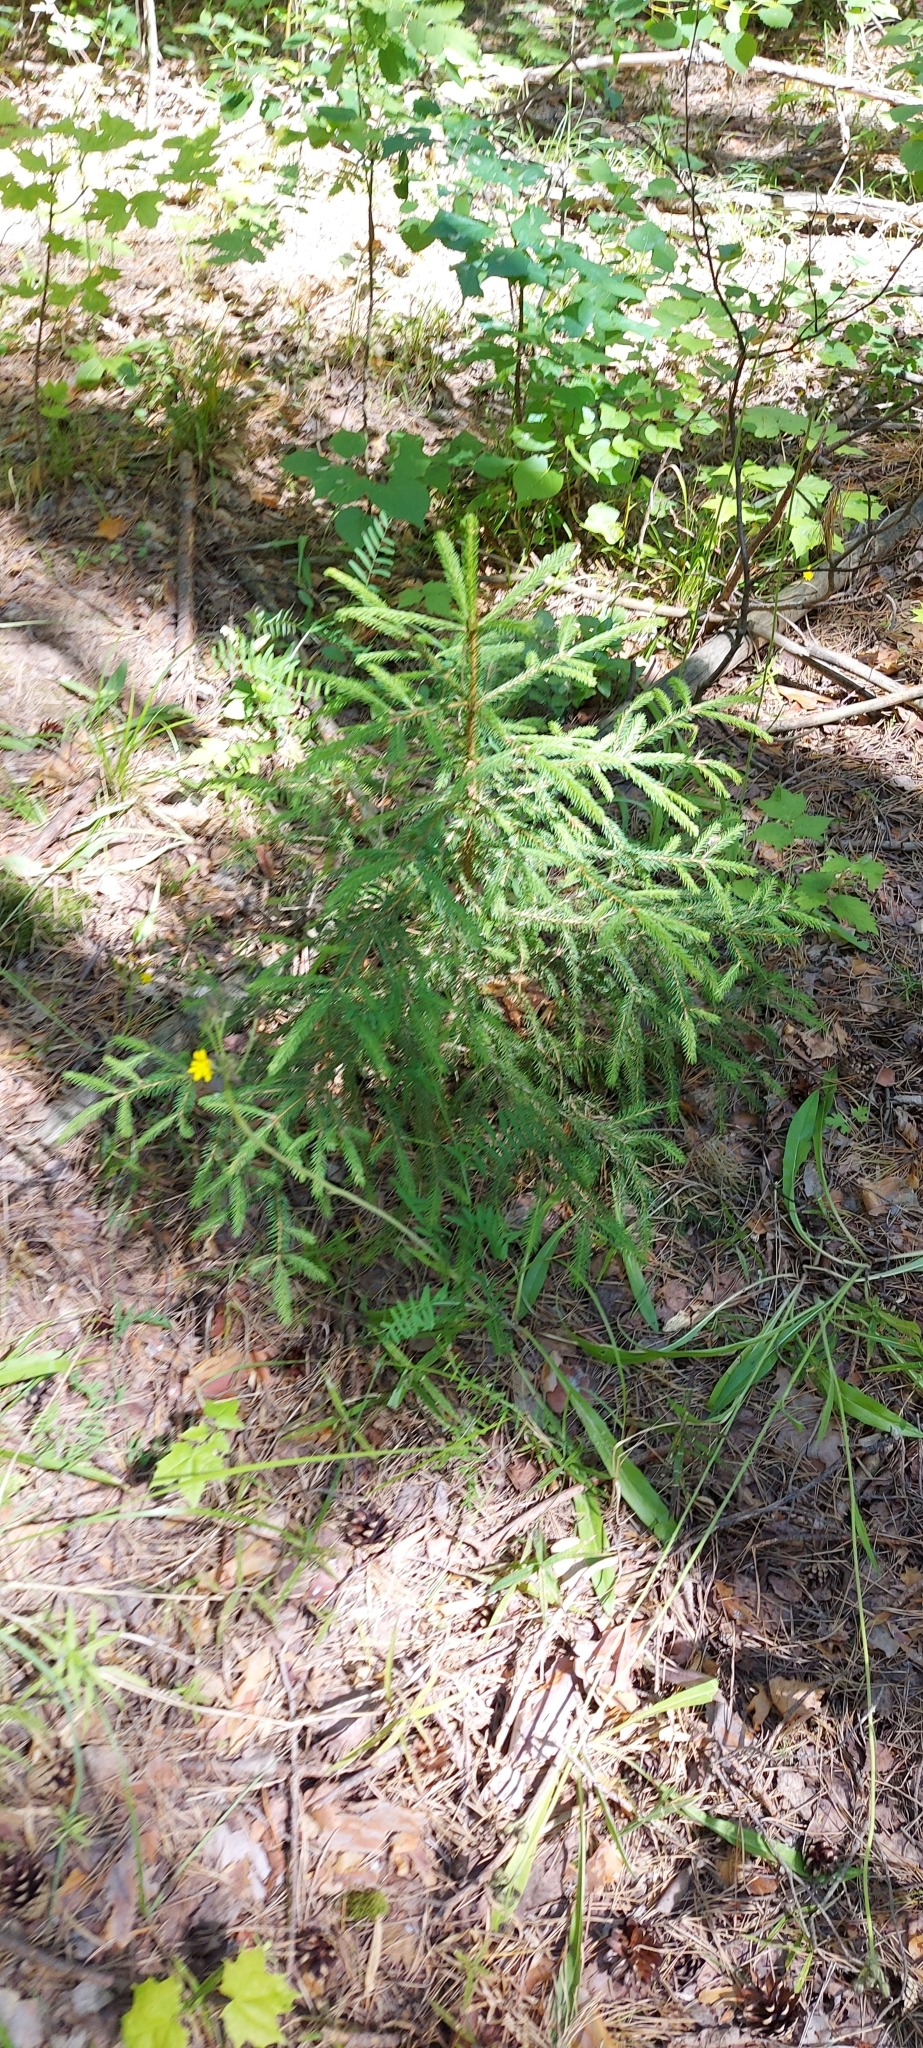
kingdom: Plantae
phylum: Tracheophyta
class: Pinopsida
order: Pinales
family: Pinaceae
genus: Picea
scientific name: Picea abies
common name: Norway spruce
